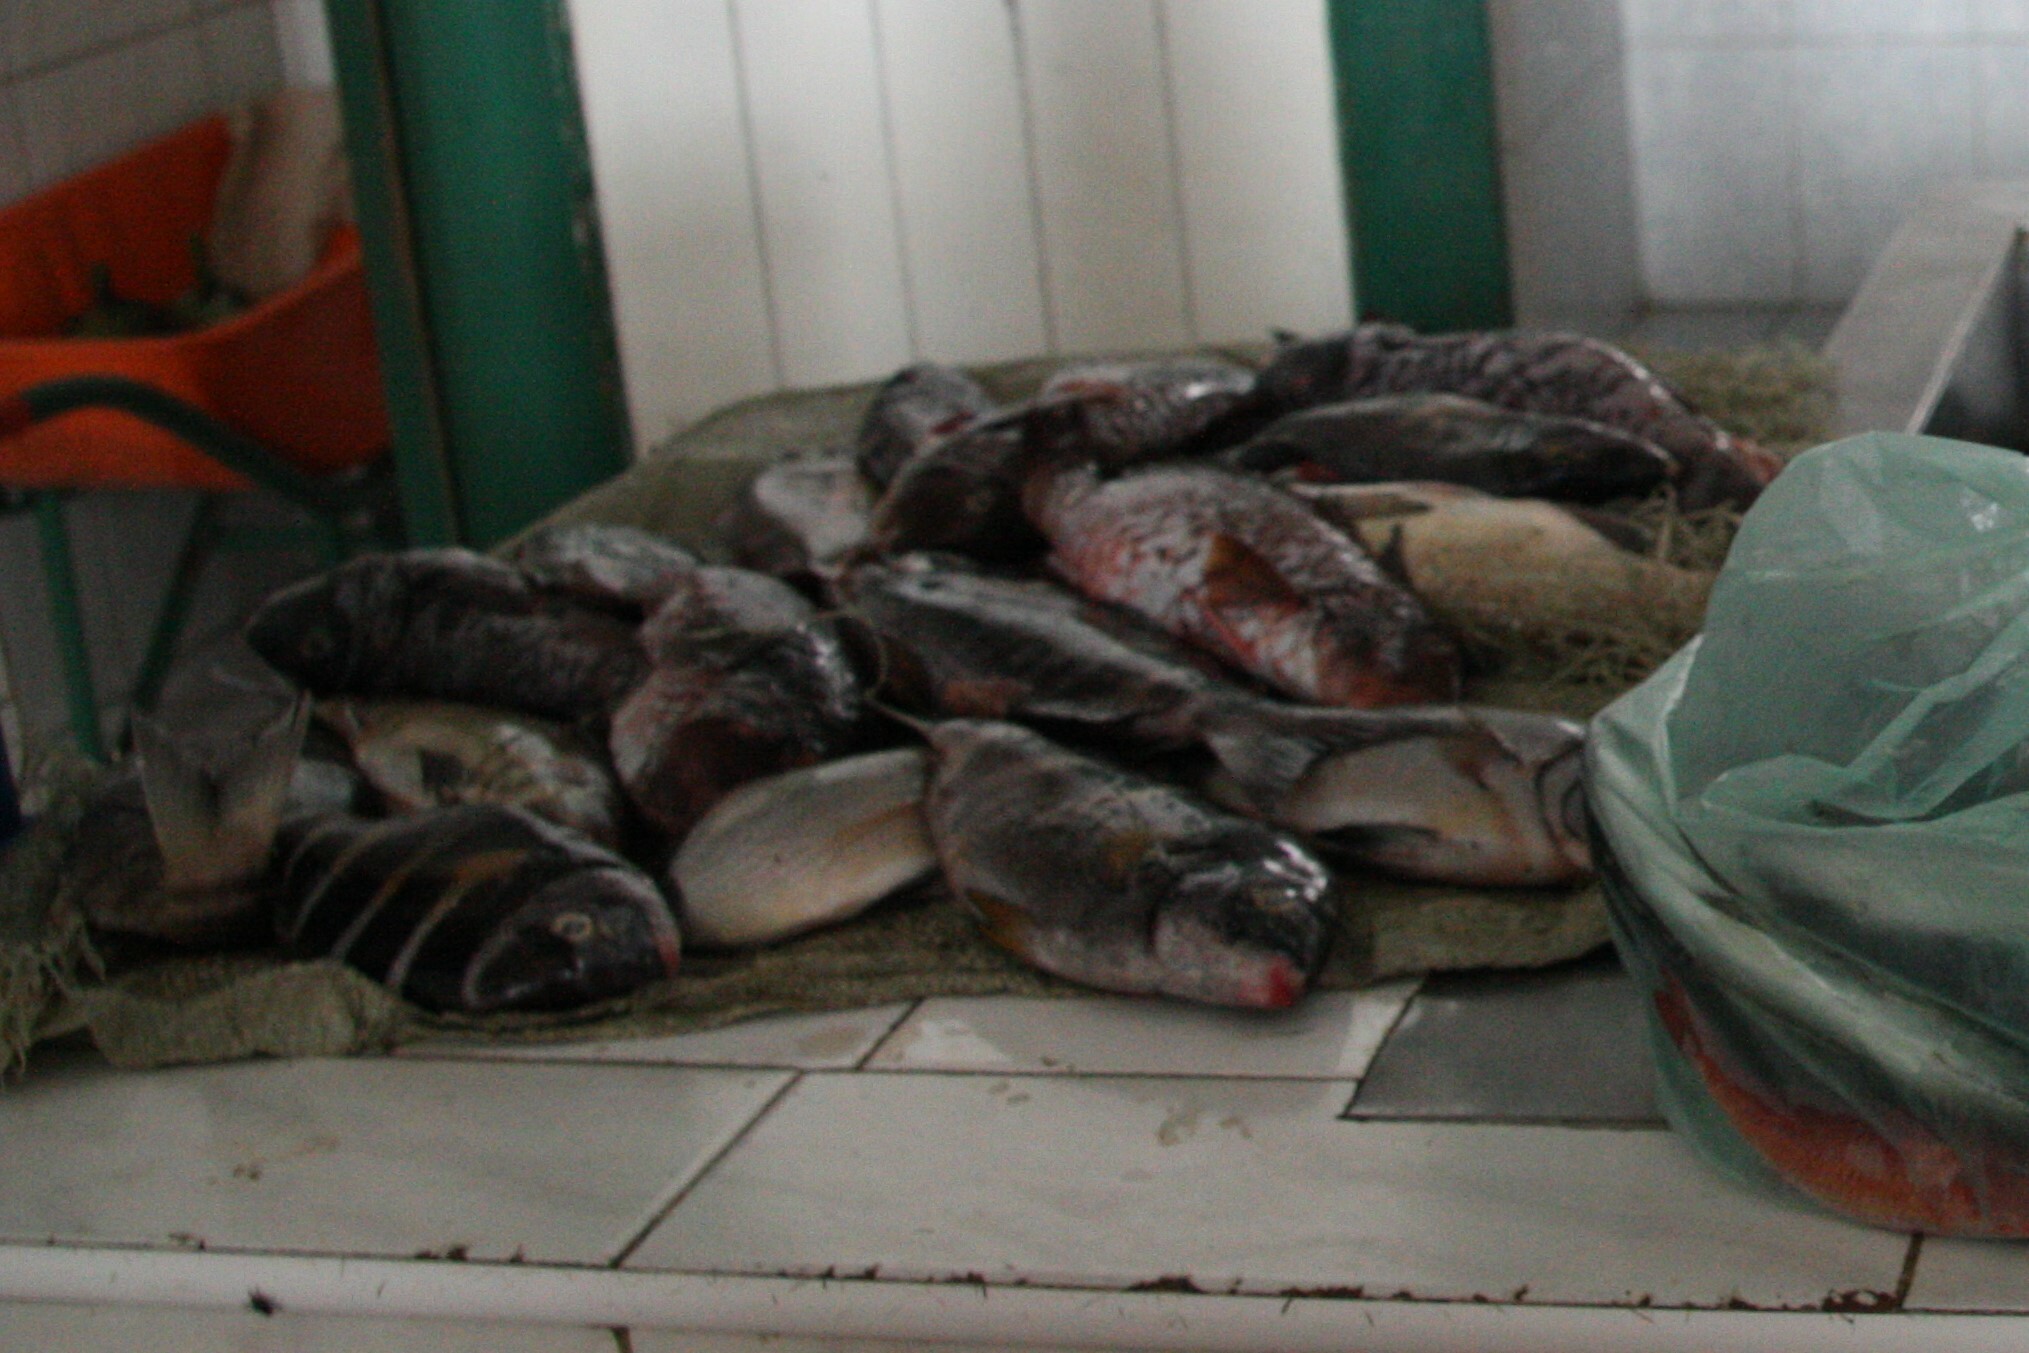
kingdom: Animalia
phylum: Chordata
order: Perciformes
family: Sparidae
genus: Diplodus
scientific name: Diplodus fasciatus
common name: Banded seabream
